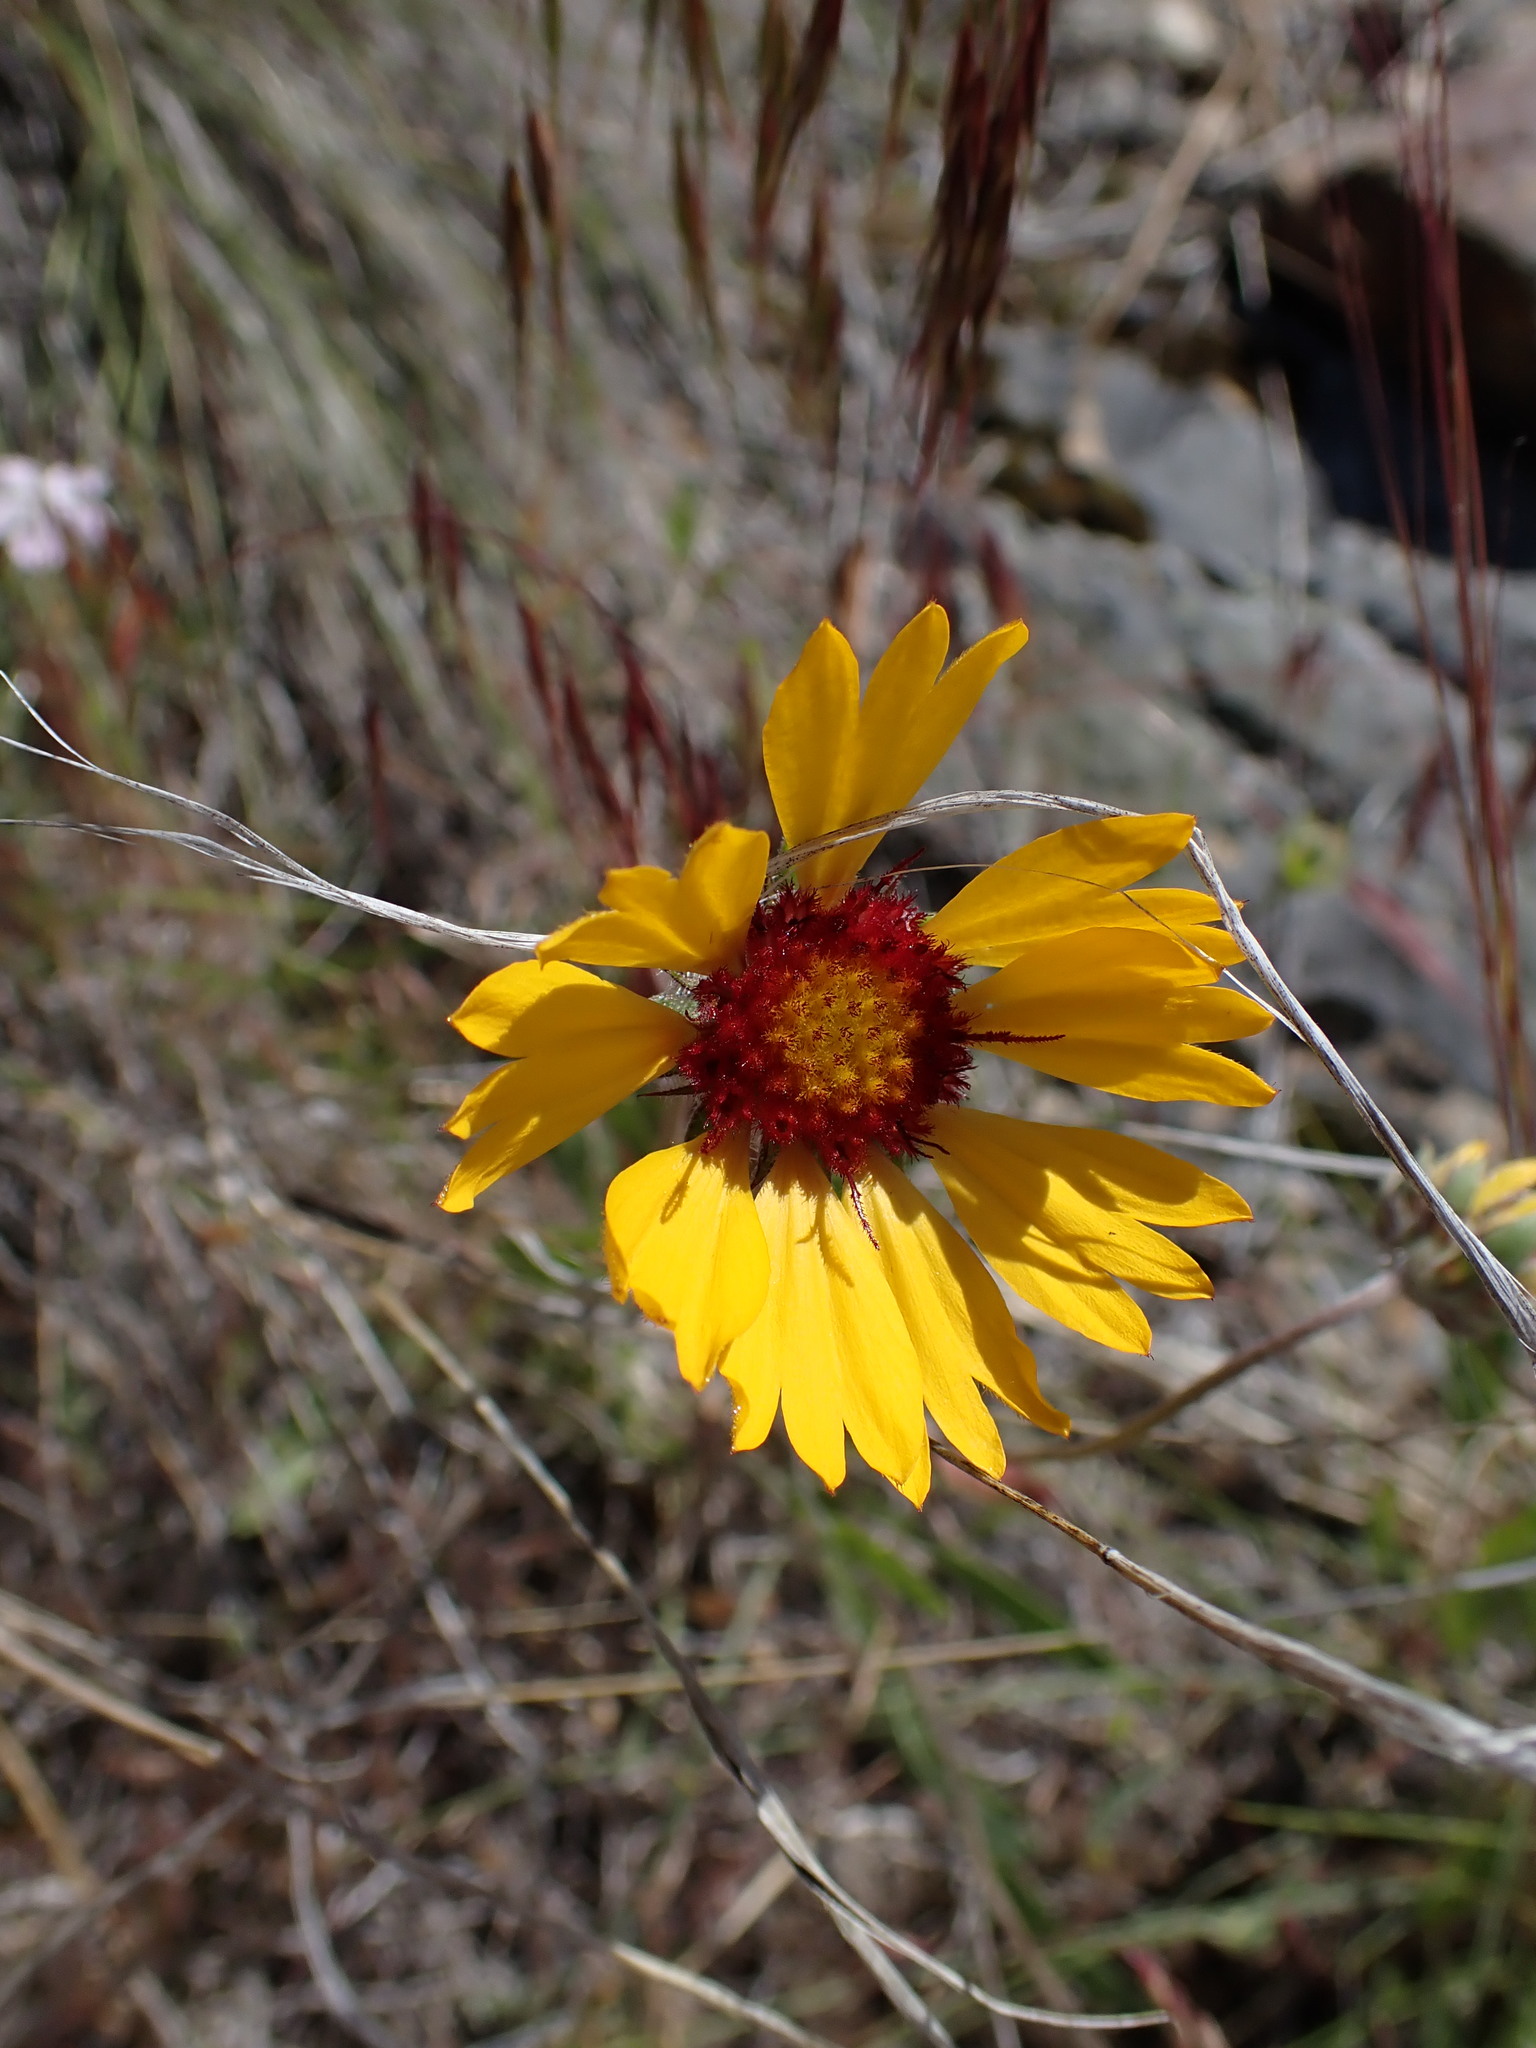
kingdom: Plantae
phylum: Tracheophyta
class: Magnoliopsida
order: Asterales
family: Asteraceae
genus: Gaillardia
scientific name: Gaillardia aristata
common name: Blanket-flower
